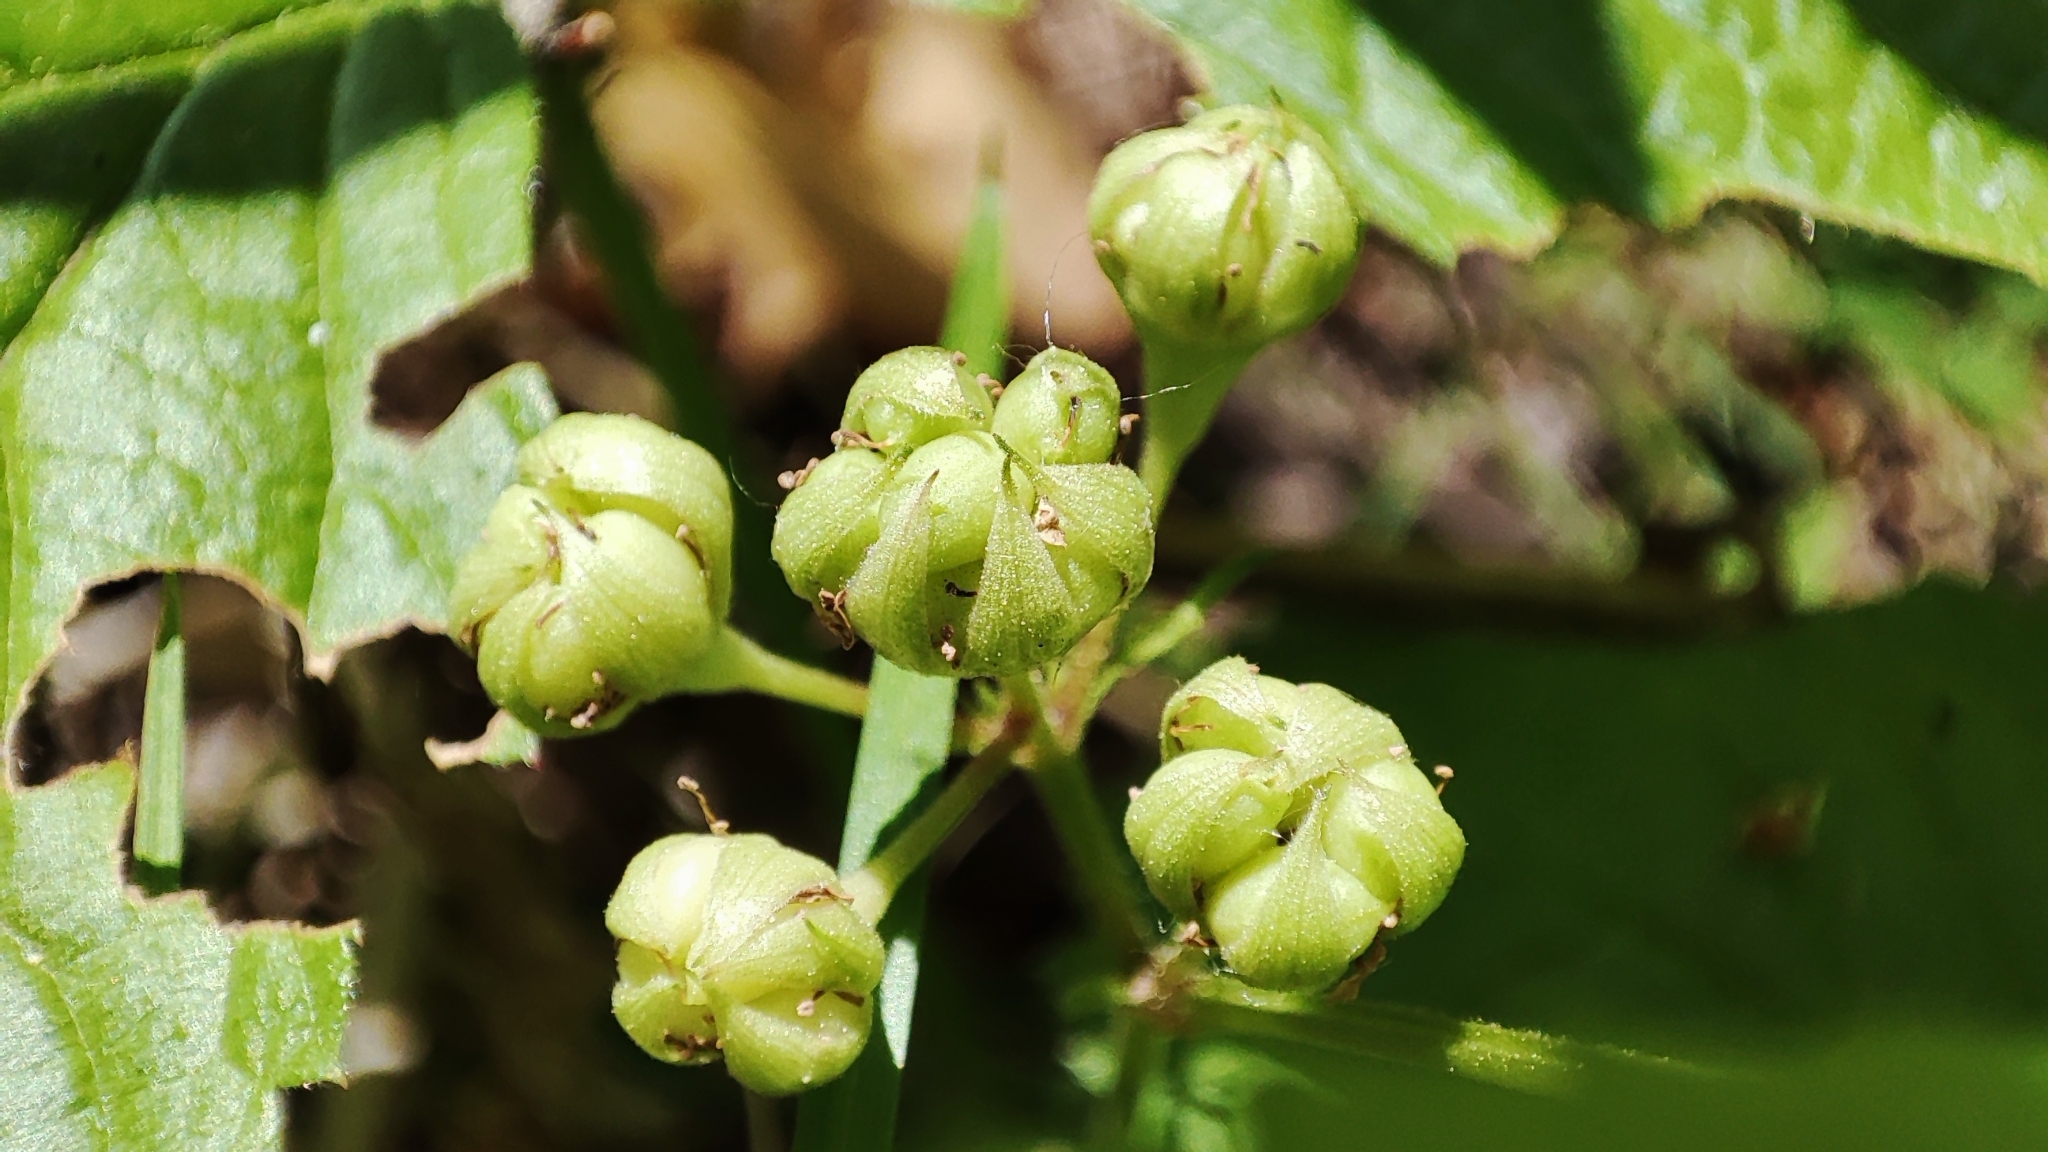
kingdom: Plantae
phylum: Tracheophyta
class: Magnoliopsida
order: Rosales
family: Rosaceae
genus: Rubus
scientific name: Rubus caesius
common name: Dewberry
